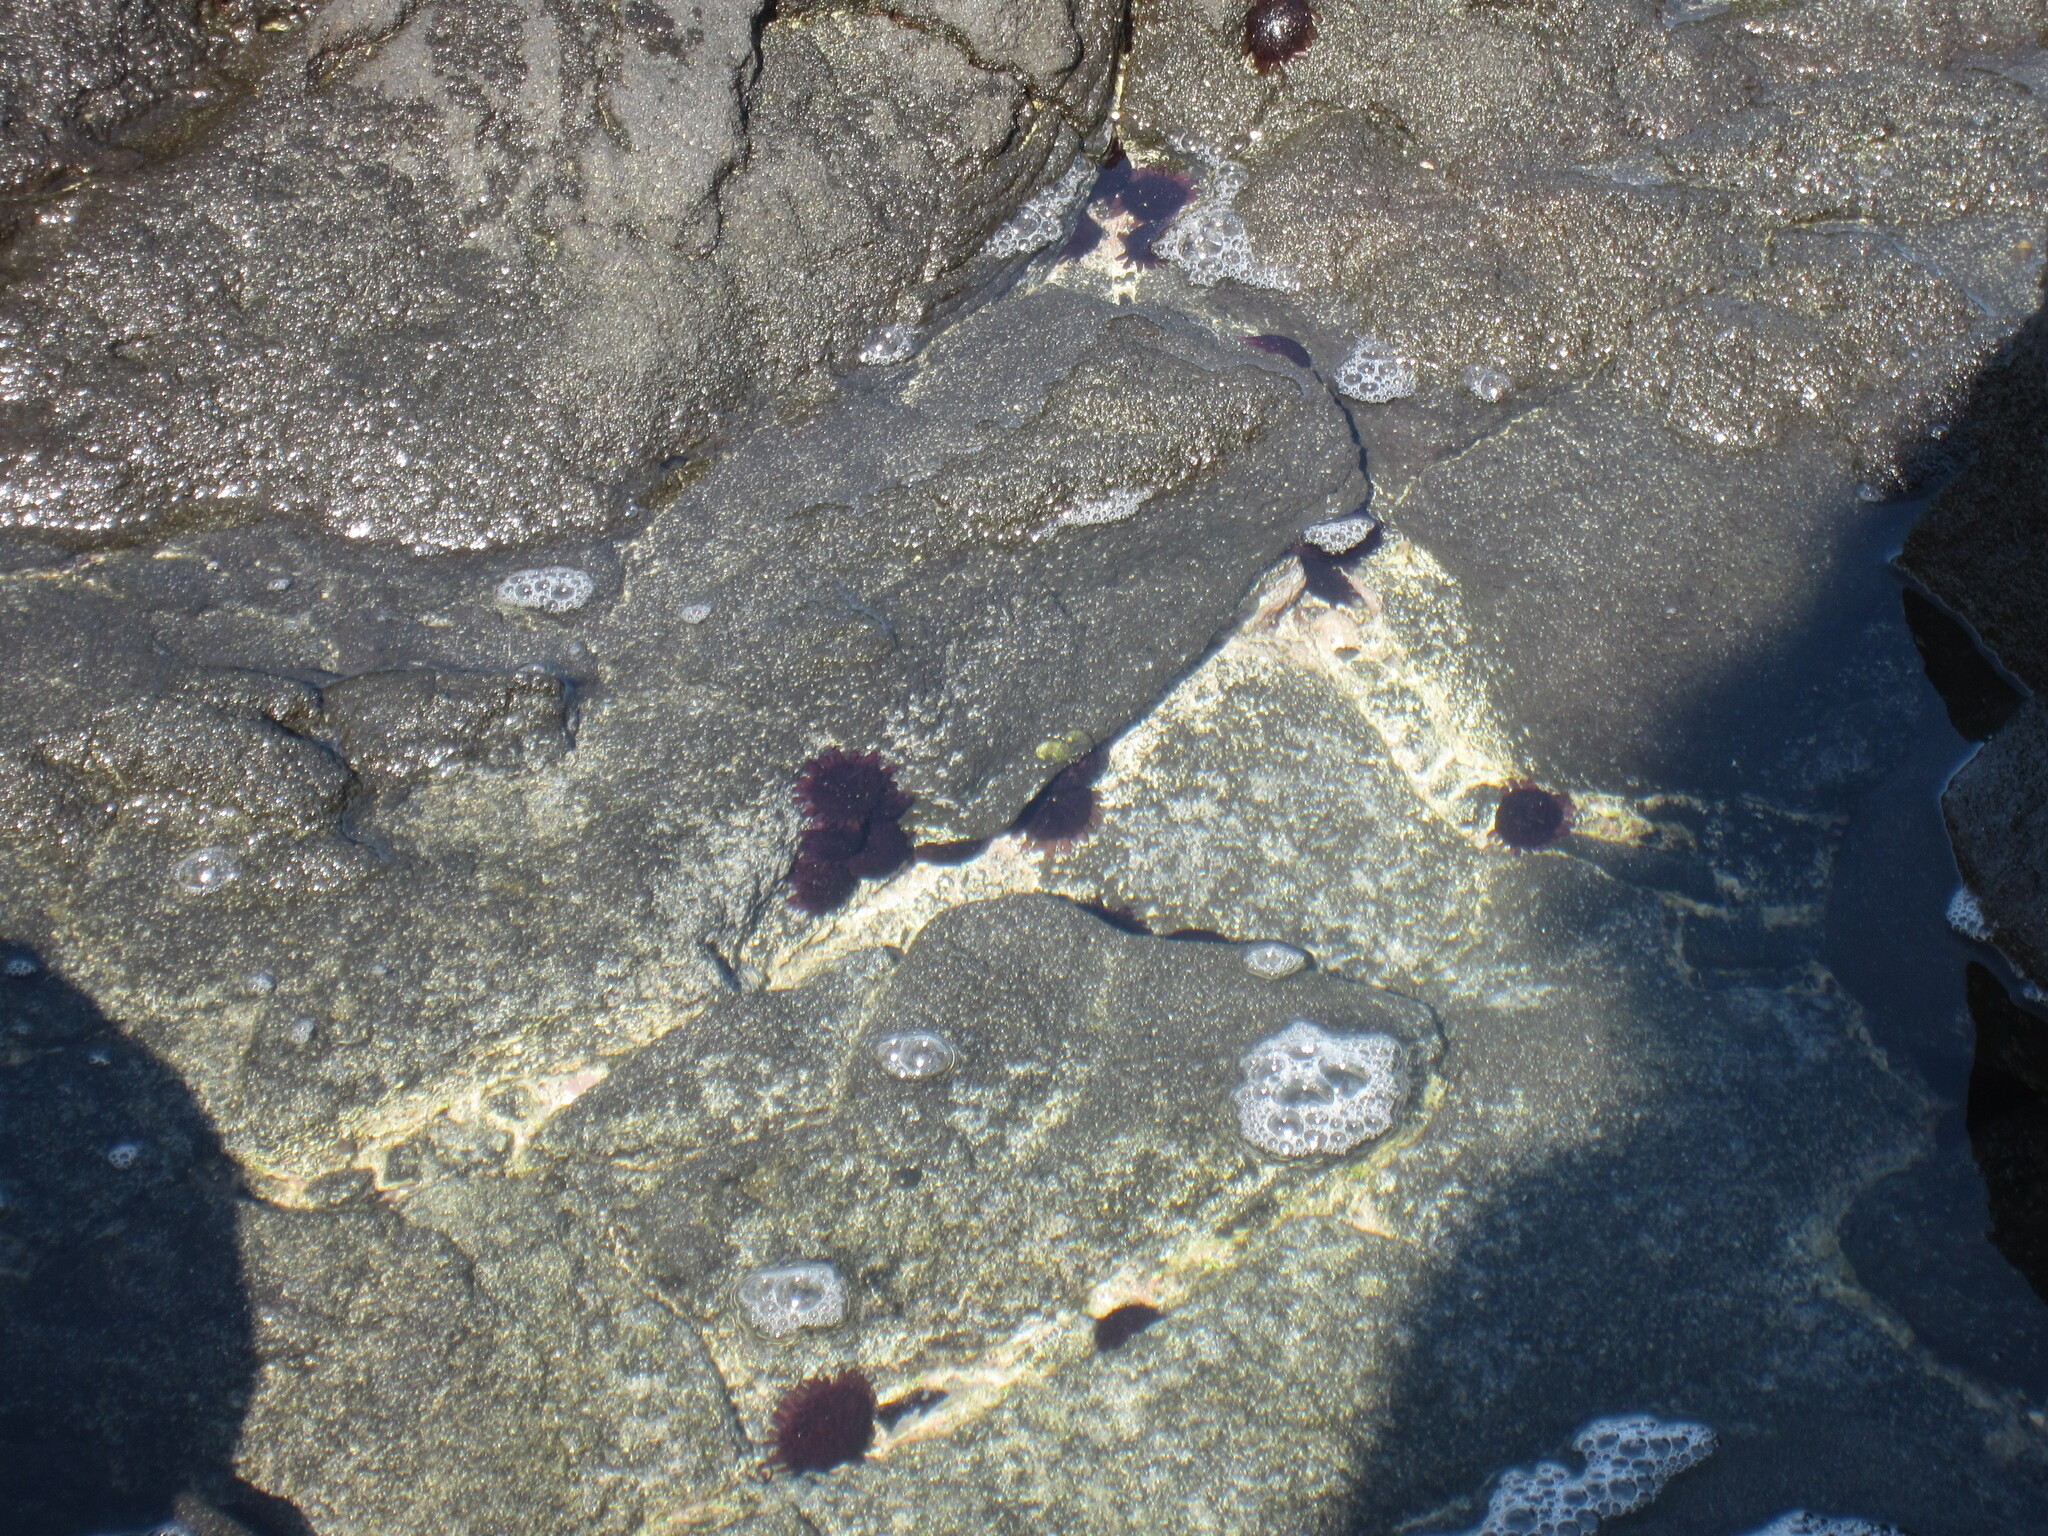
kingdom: Animalia
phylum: Echinodermata
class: Echinoidea
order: Camarodonta
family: Echinometridae
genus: Colobocentrotus
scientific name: Colobocentrotus atratus
